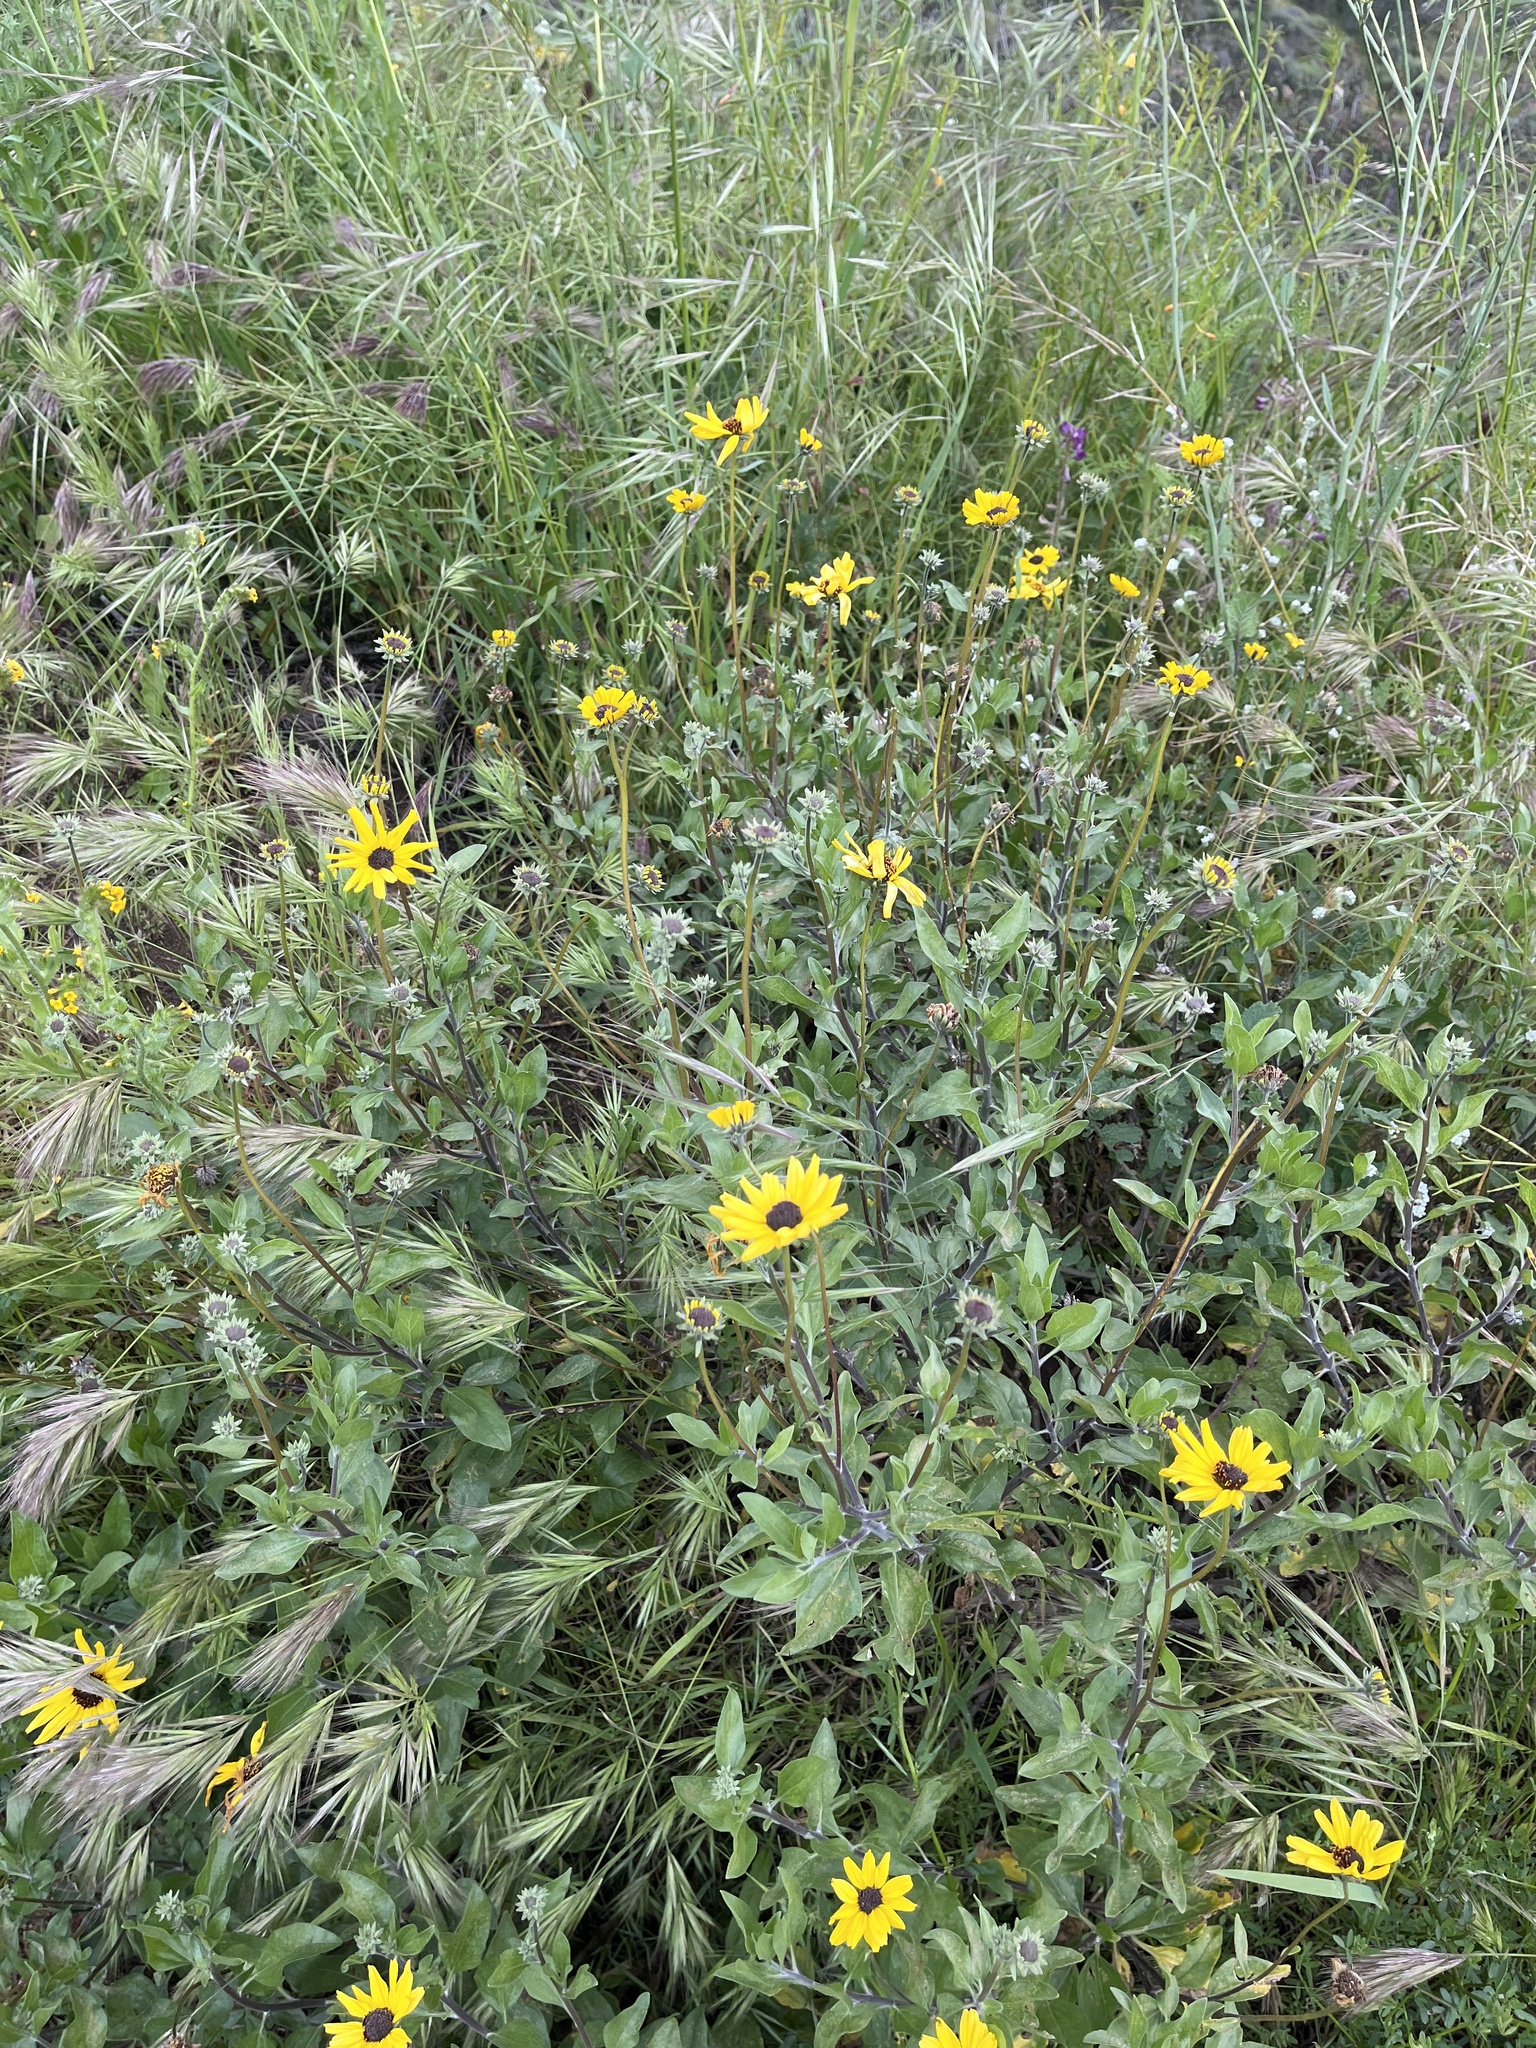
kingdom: Plantae
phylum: Tracheophyta
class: Magnoliopsida
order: Asterales
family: Asteraceae
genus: Encelia
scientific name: Encelia californica
